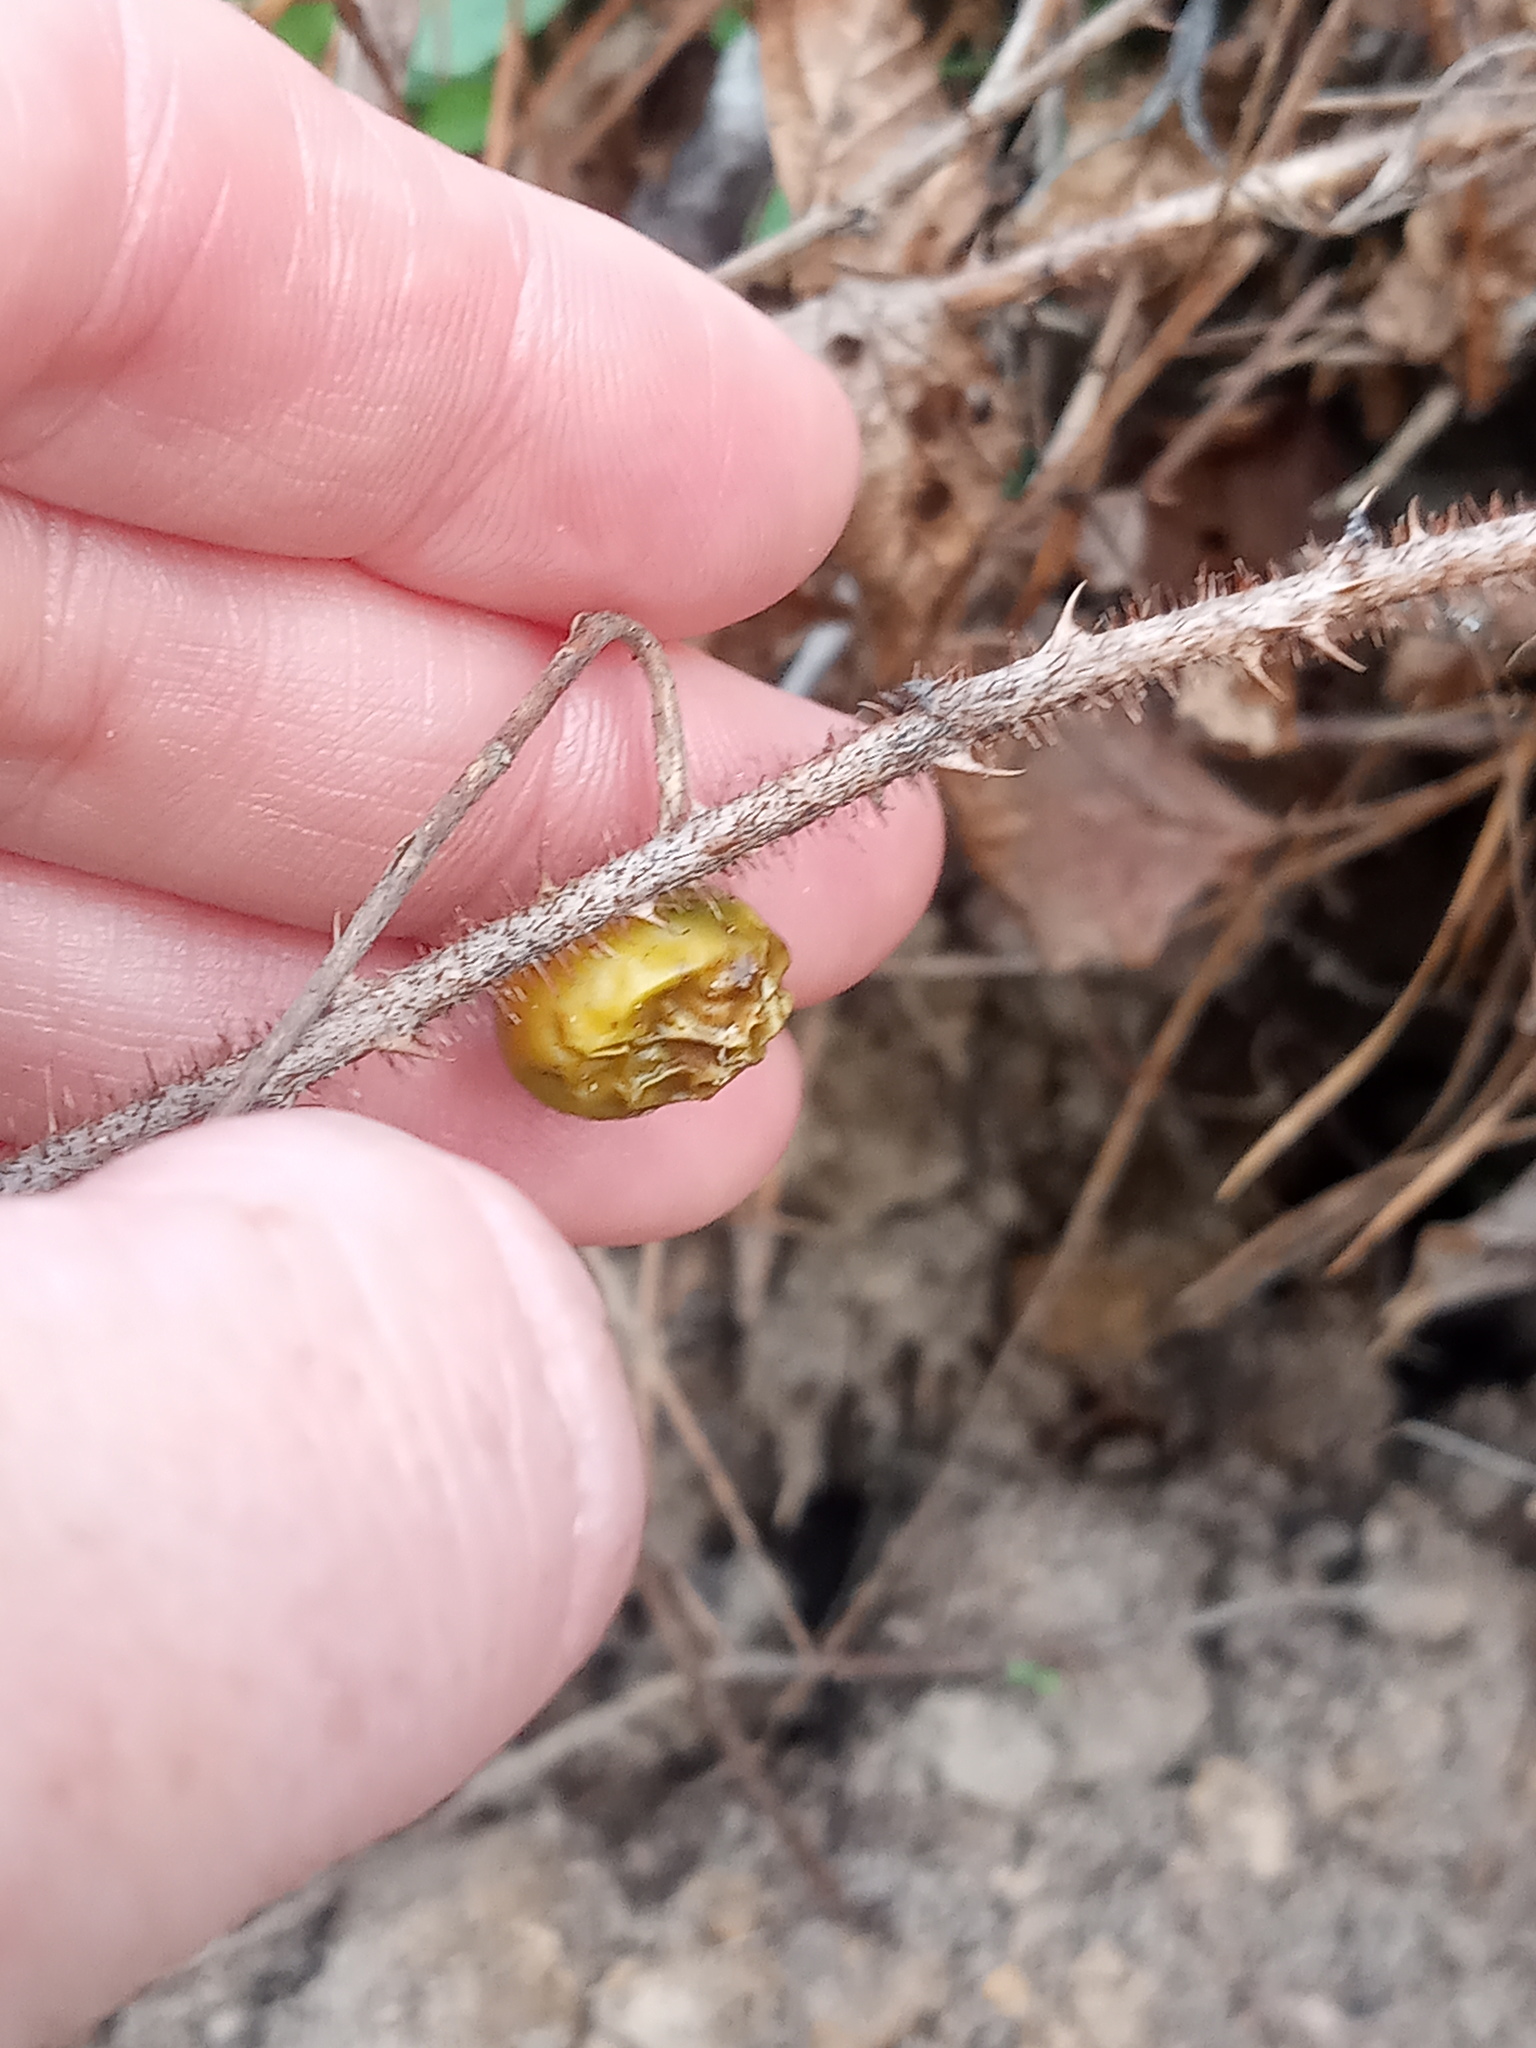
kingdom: Plantae
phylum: Tracheophyta
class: Magnoliopsida
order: Solanales
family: Solanaceae
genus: Solanum
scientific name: Solanum carolinense
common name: Horse-nettle
